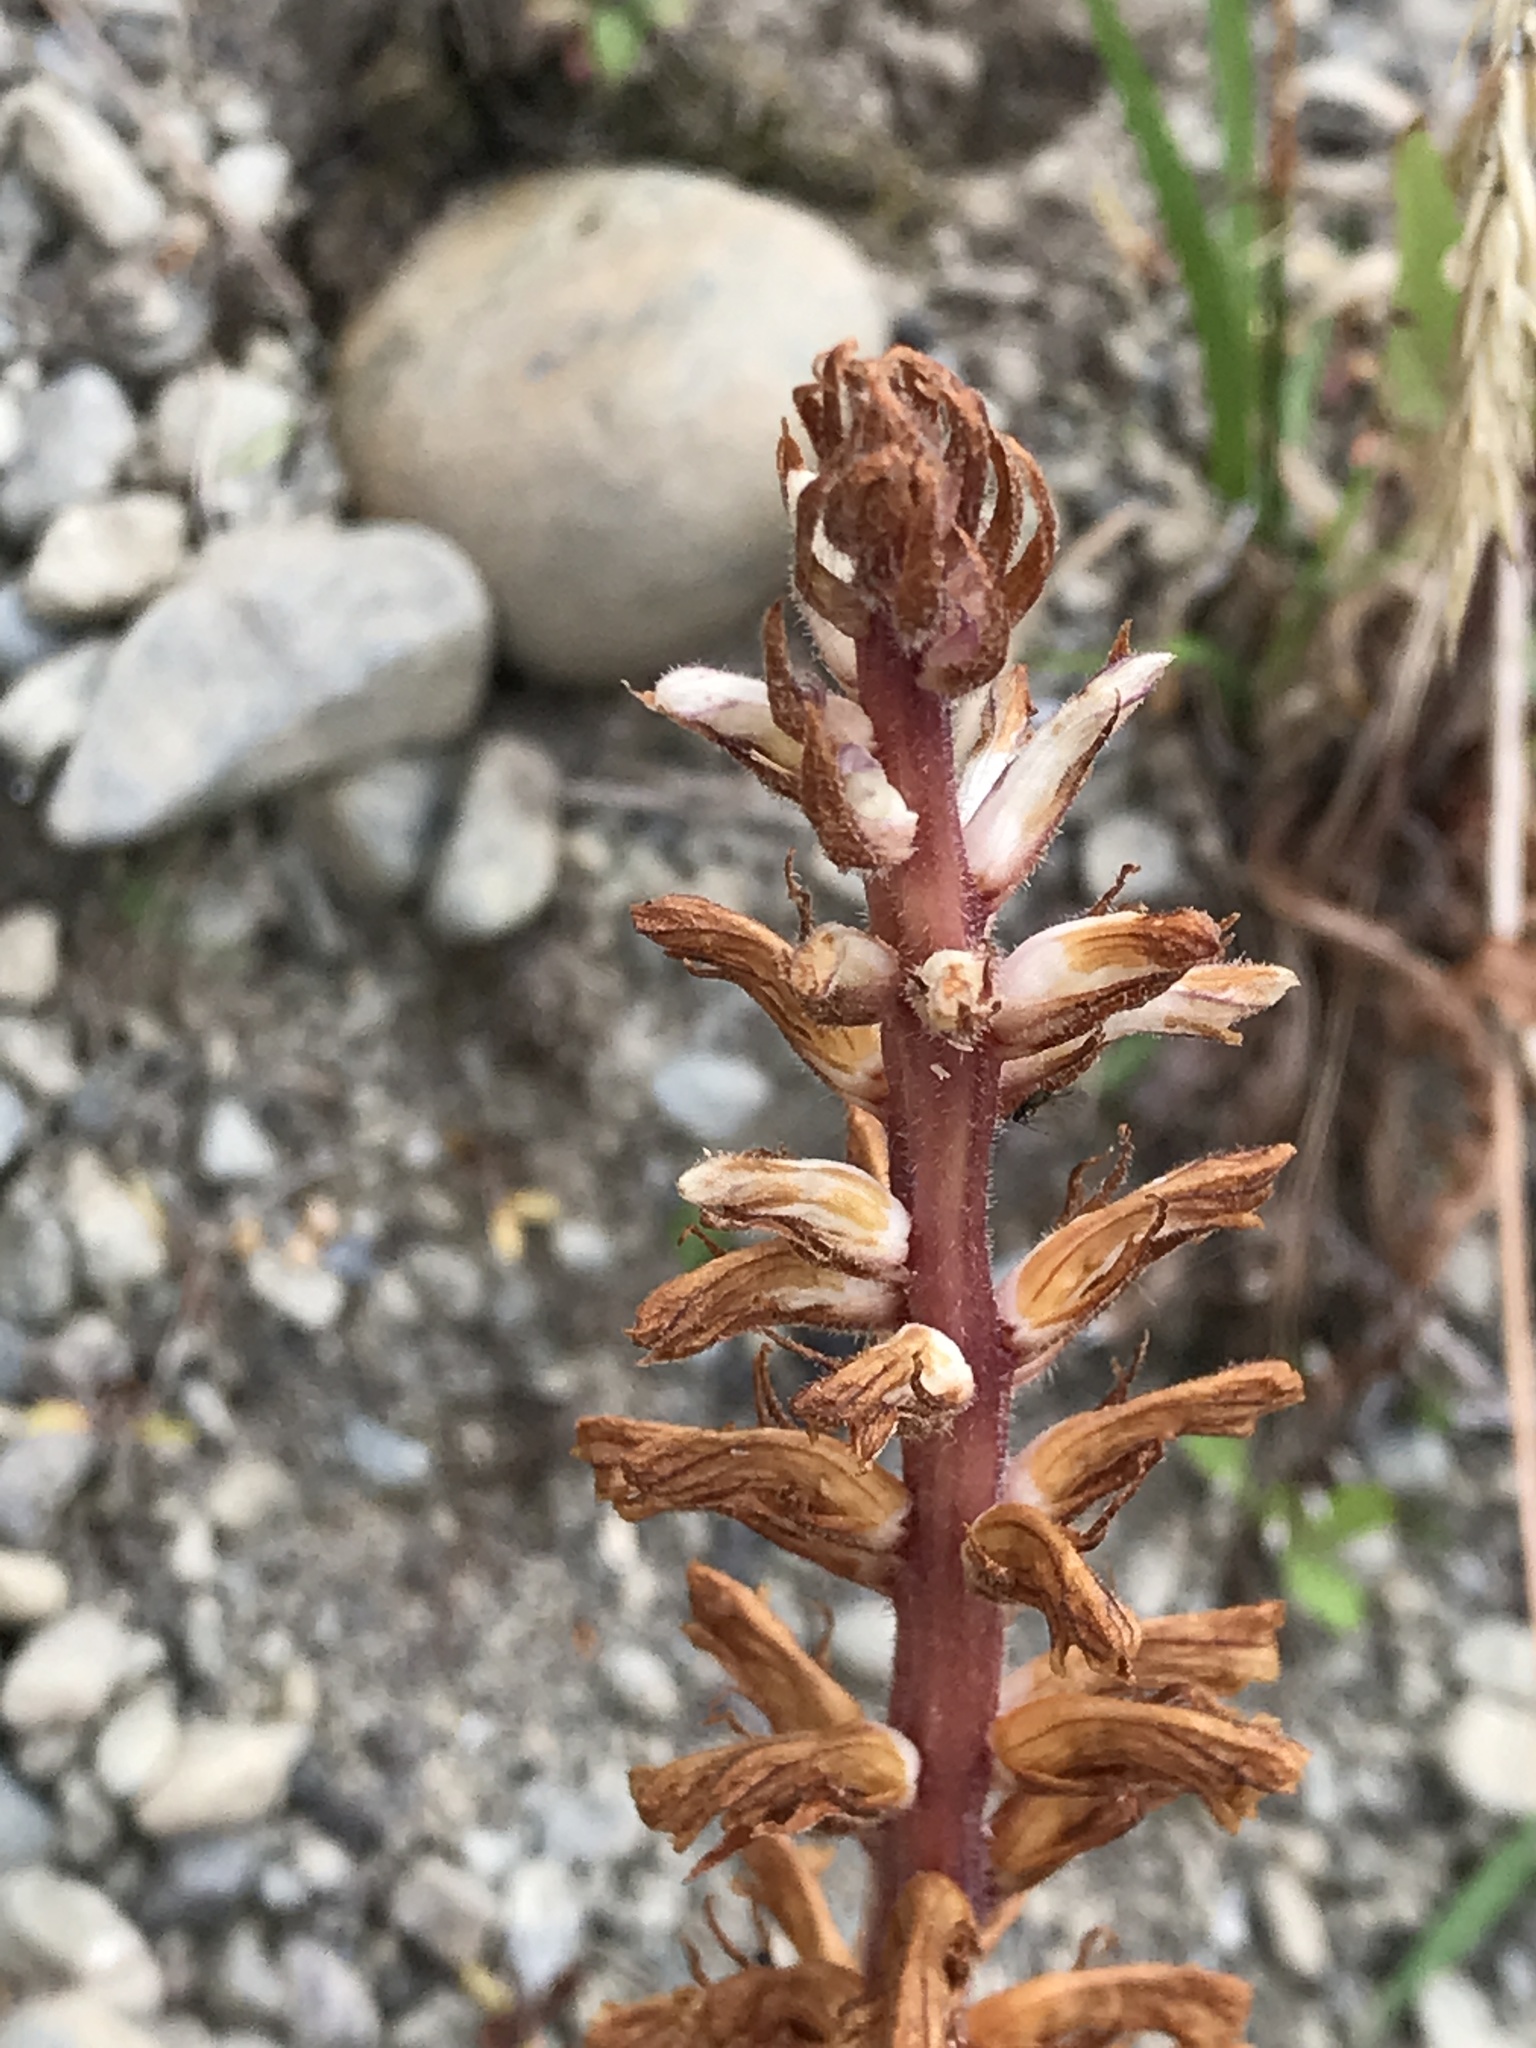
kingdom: Plantae
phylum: Tracheophyta
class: Magnoliopsida
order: Lamiales
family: Orobanchaceae
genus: Orobanche
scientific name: Orobanche minor
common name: Common broomrape
